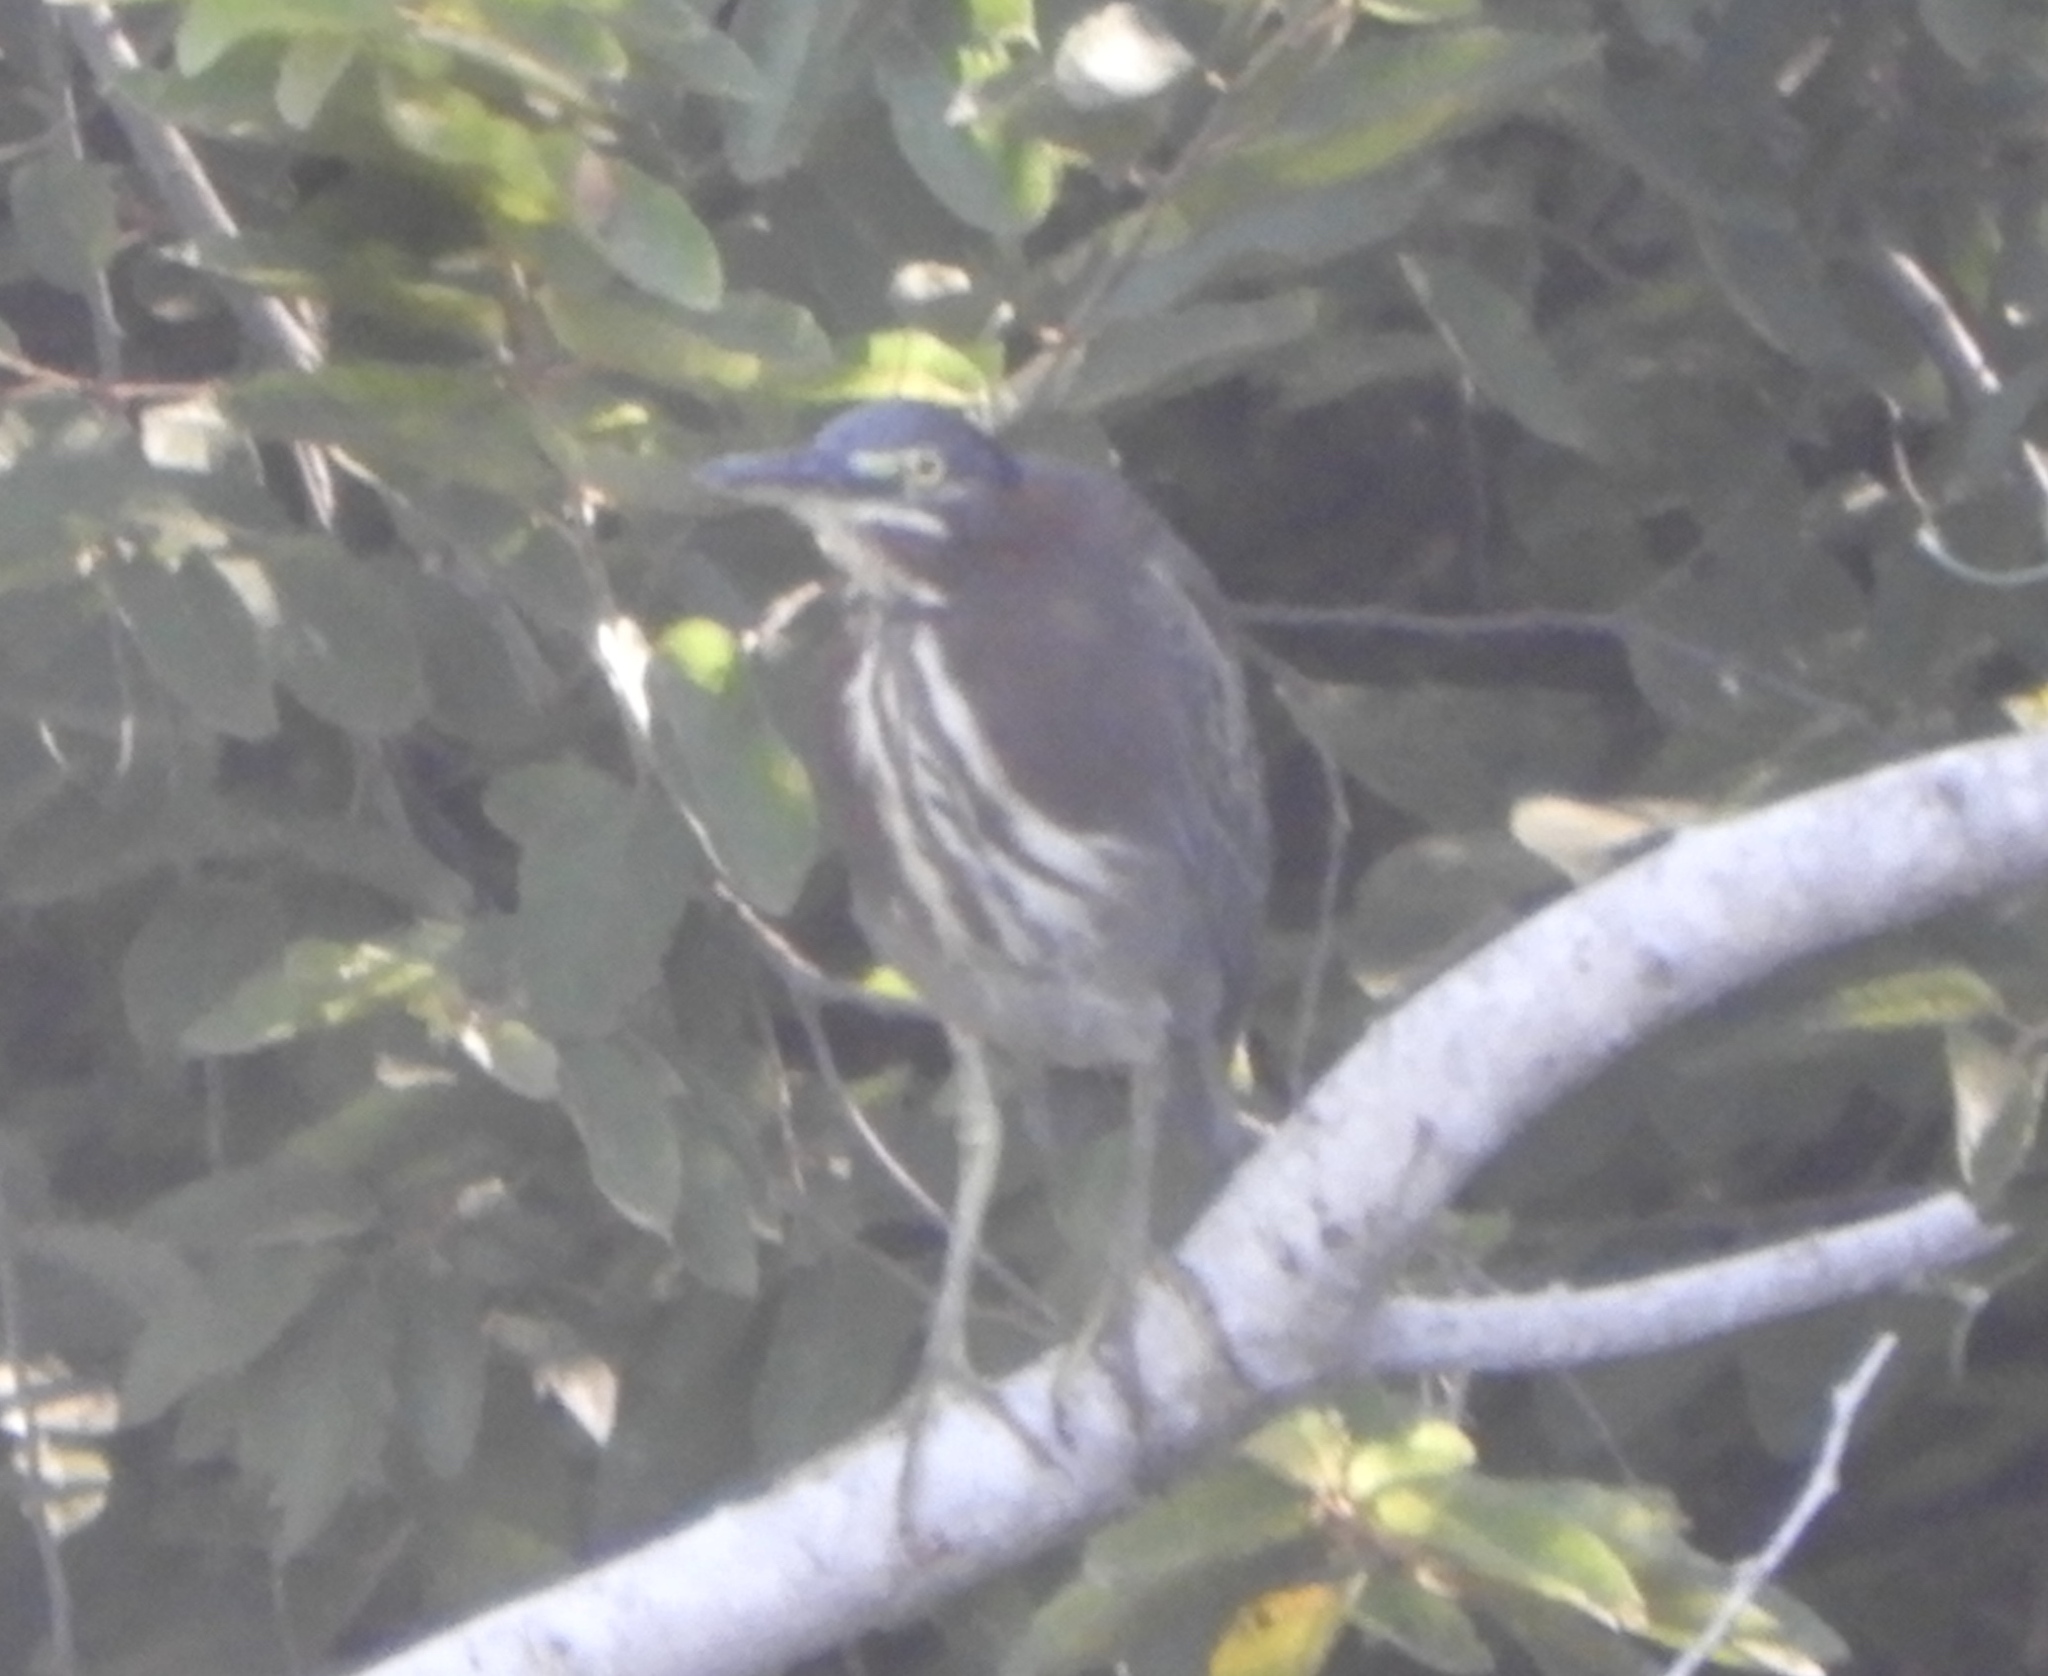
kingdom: Animalia
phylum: Chordata
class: Aves
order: Pelecaniformes
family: Ardeidae
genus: Butorides
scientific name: Butorides virescens
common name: Green heron
